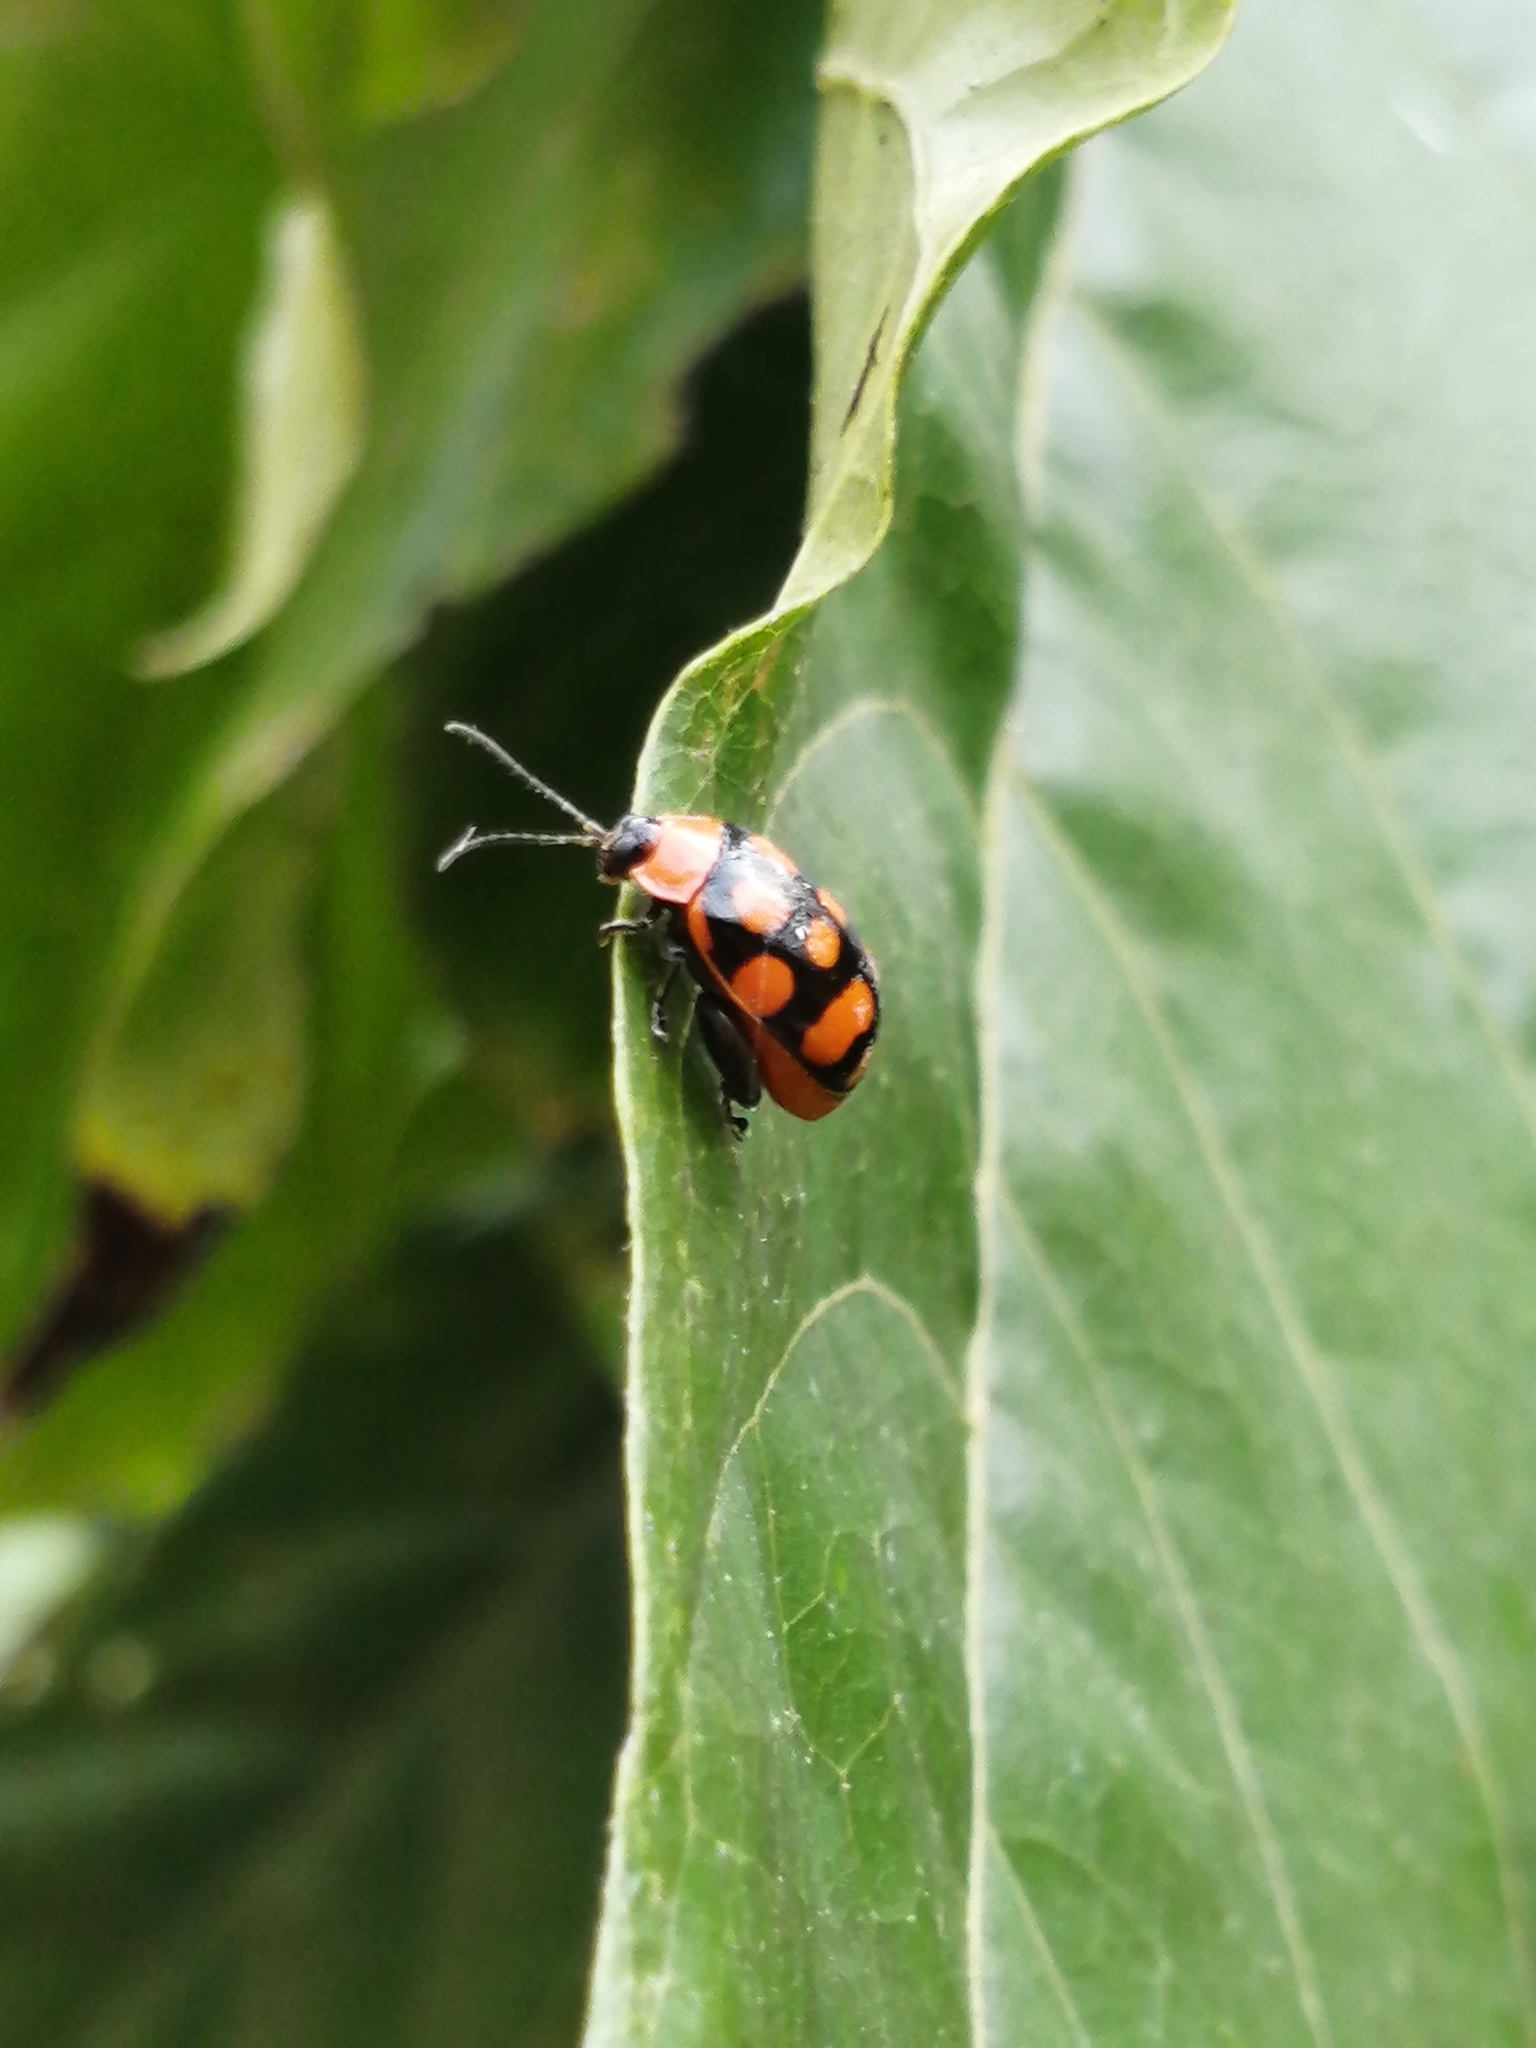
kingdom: Animalia
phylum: Arthropoda
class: Insecta
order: Coleoptera
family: Chrysomelidae
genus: Alagoasa
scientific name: Alagoasa
